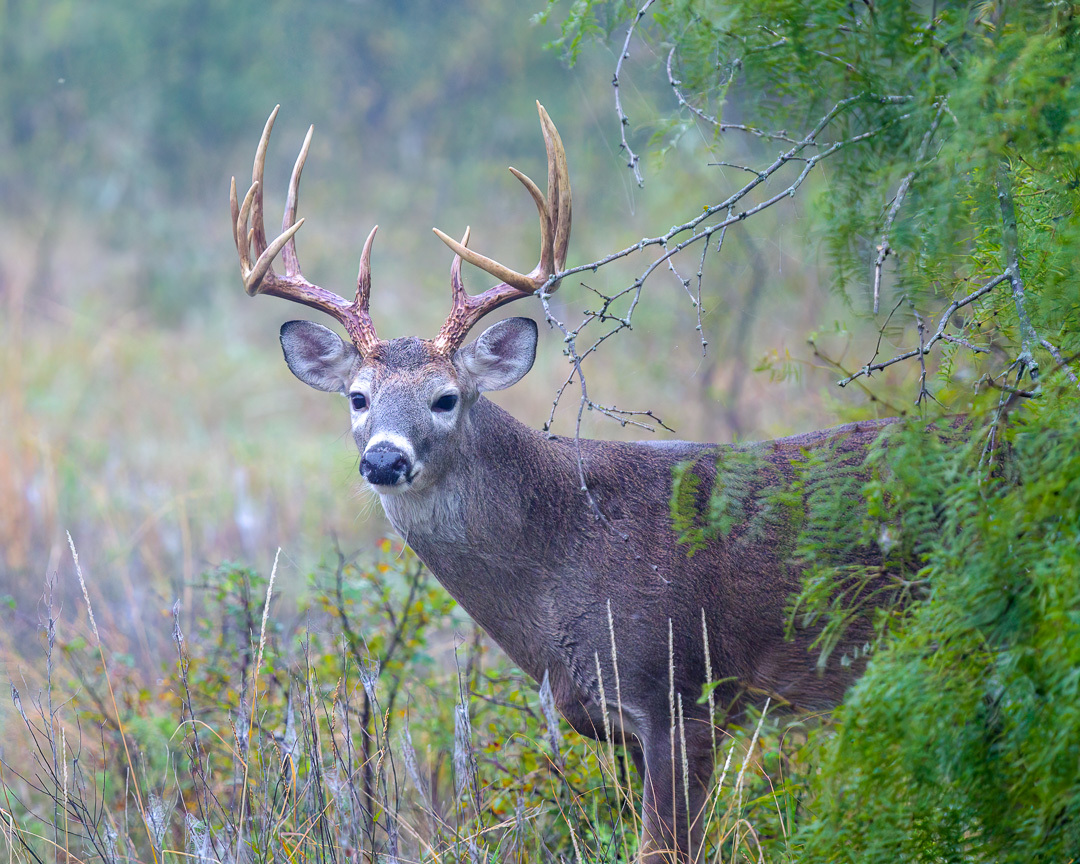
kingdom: Animalia
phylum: Chordata
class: Mammalia
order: Artiodactyla
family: Cervidae
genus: Odocoileus
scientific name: Odocoileus virginianus
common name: White-tailed deer
